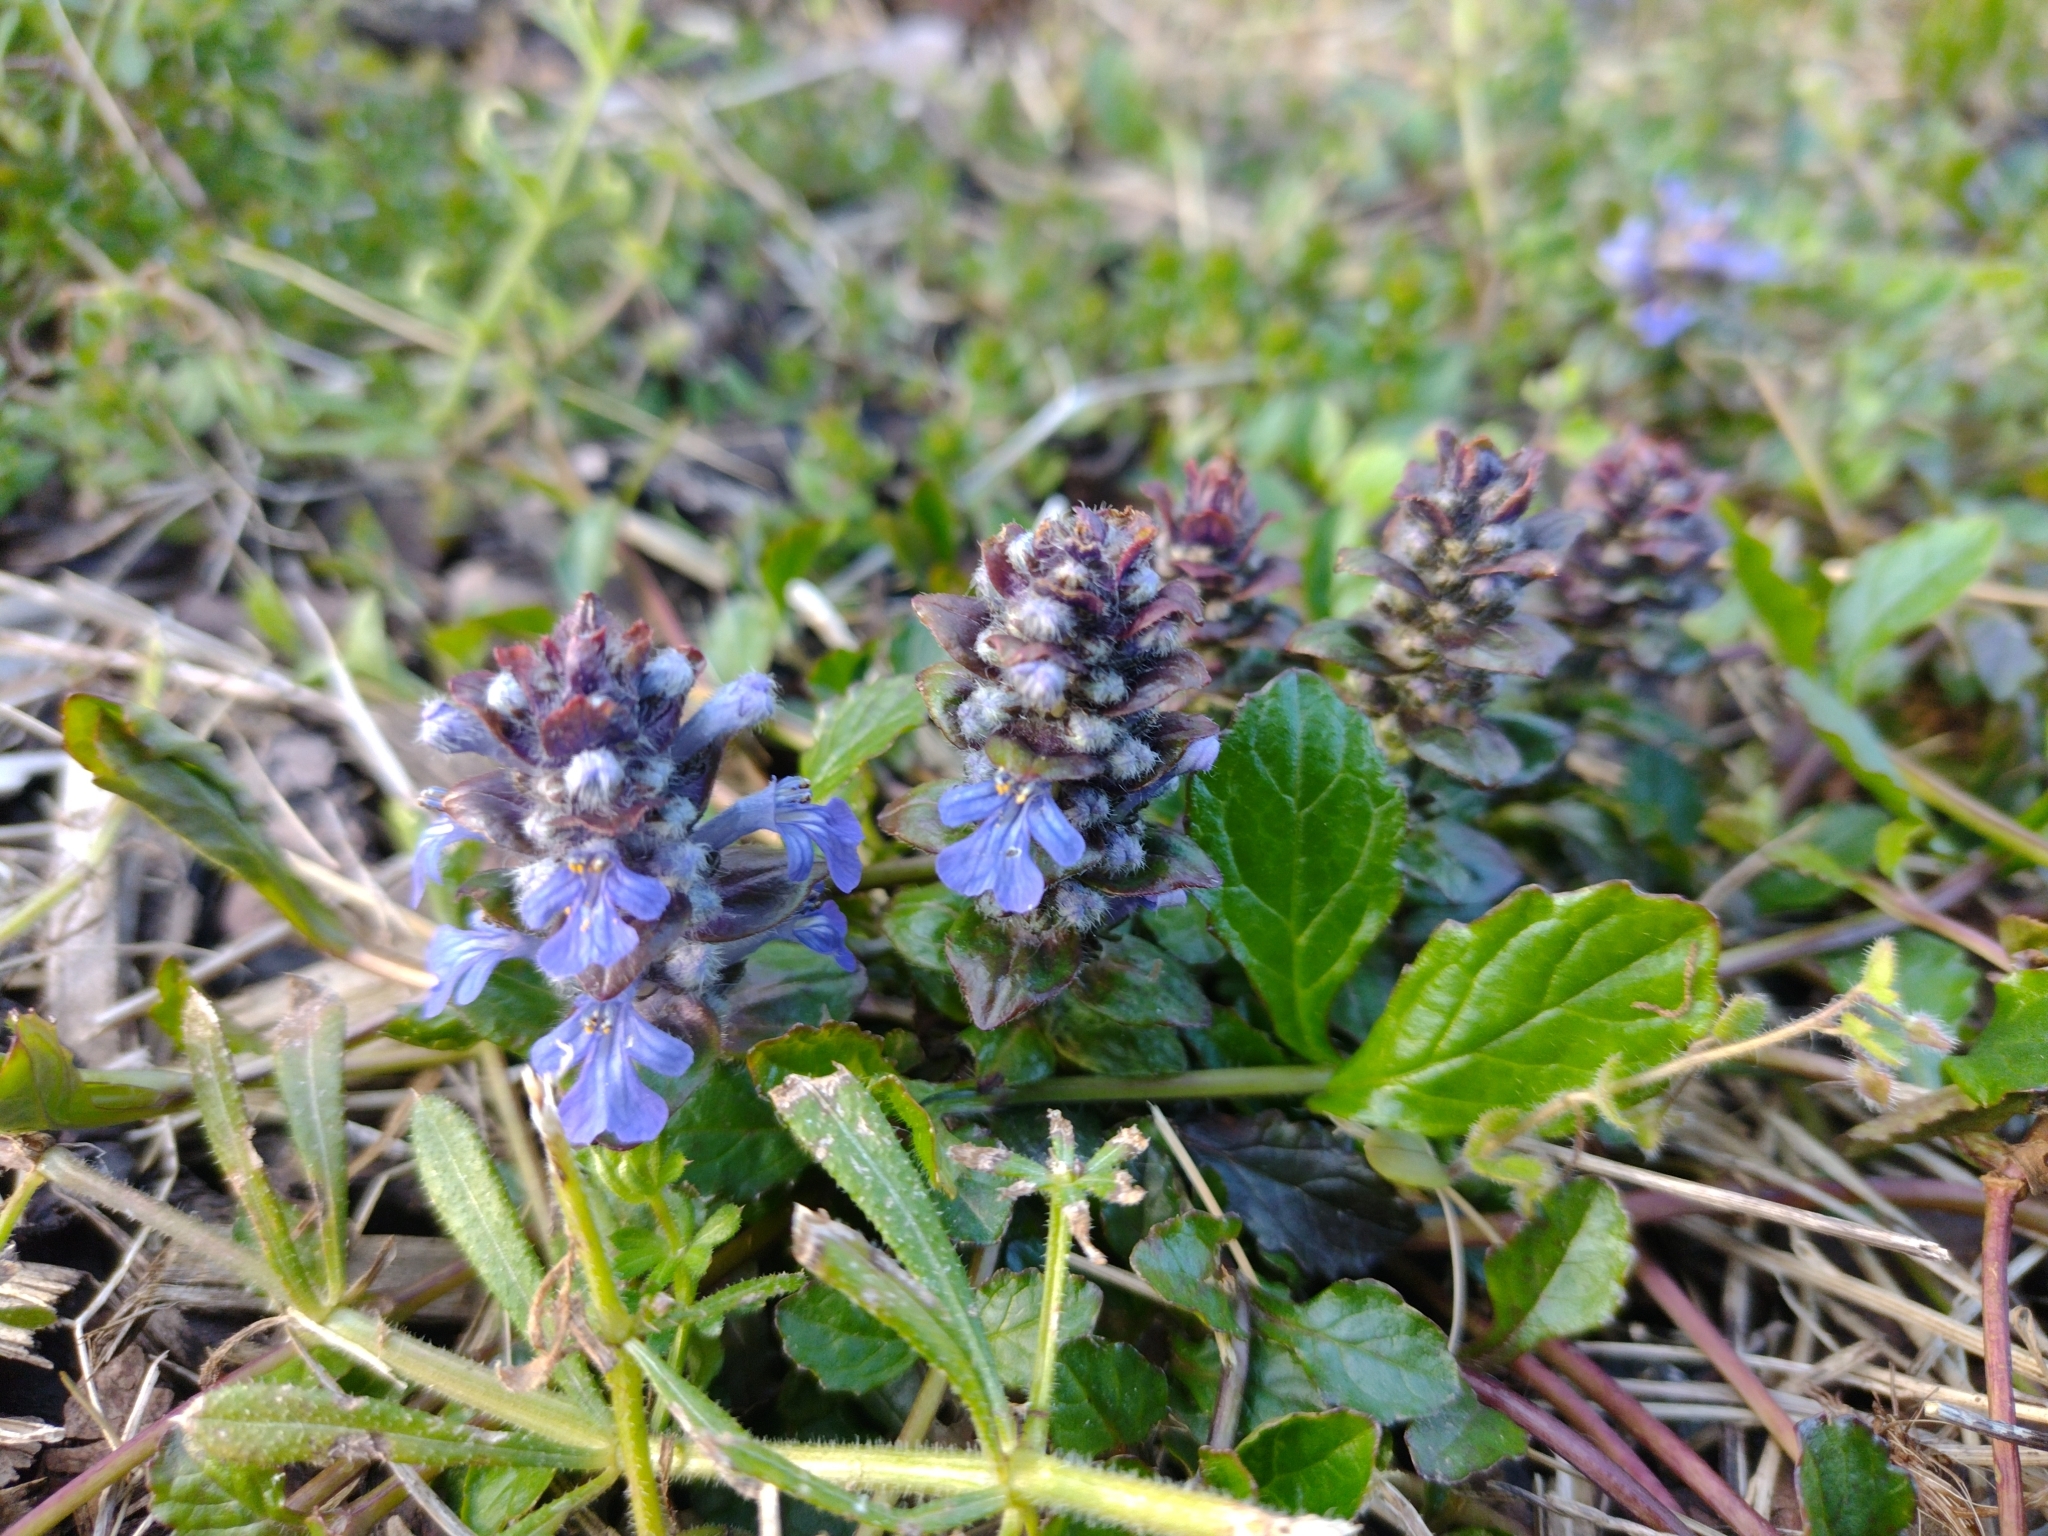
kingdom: Plantae
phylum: Tracheophyta
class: Magnoliopsida
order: Lamiales
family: Lamiaceae
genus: Ajuga
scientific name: Ajuga reptans
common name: Bugle
